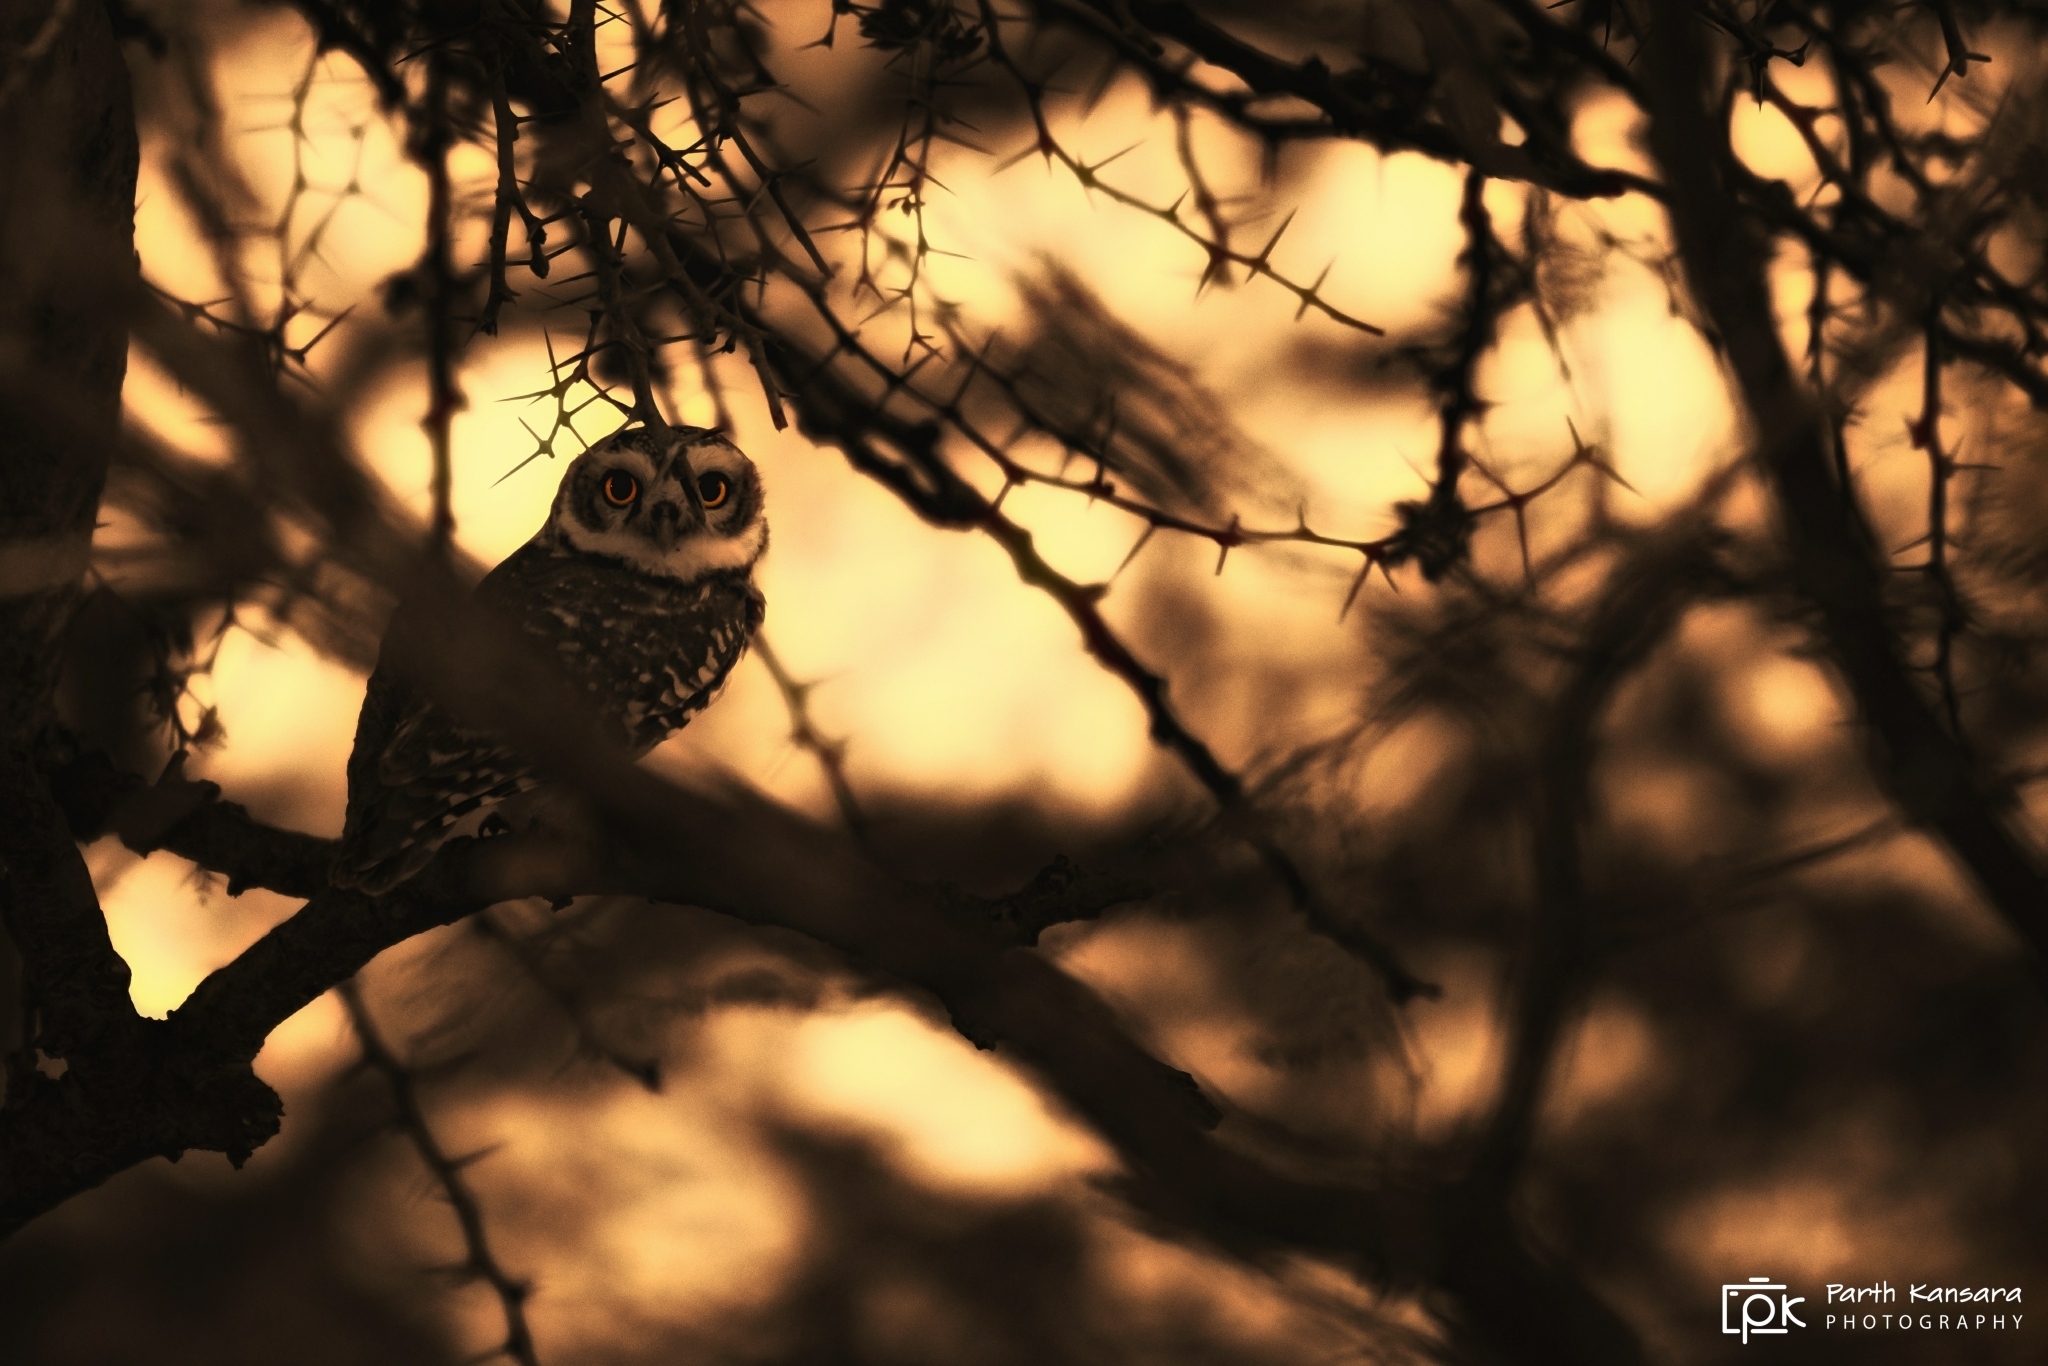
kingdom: Animalia
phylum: Chordata
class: Aves
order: Strigiformes
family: Strigidae
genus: Athene
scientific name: Athene brama
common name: Spotted owlet
